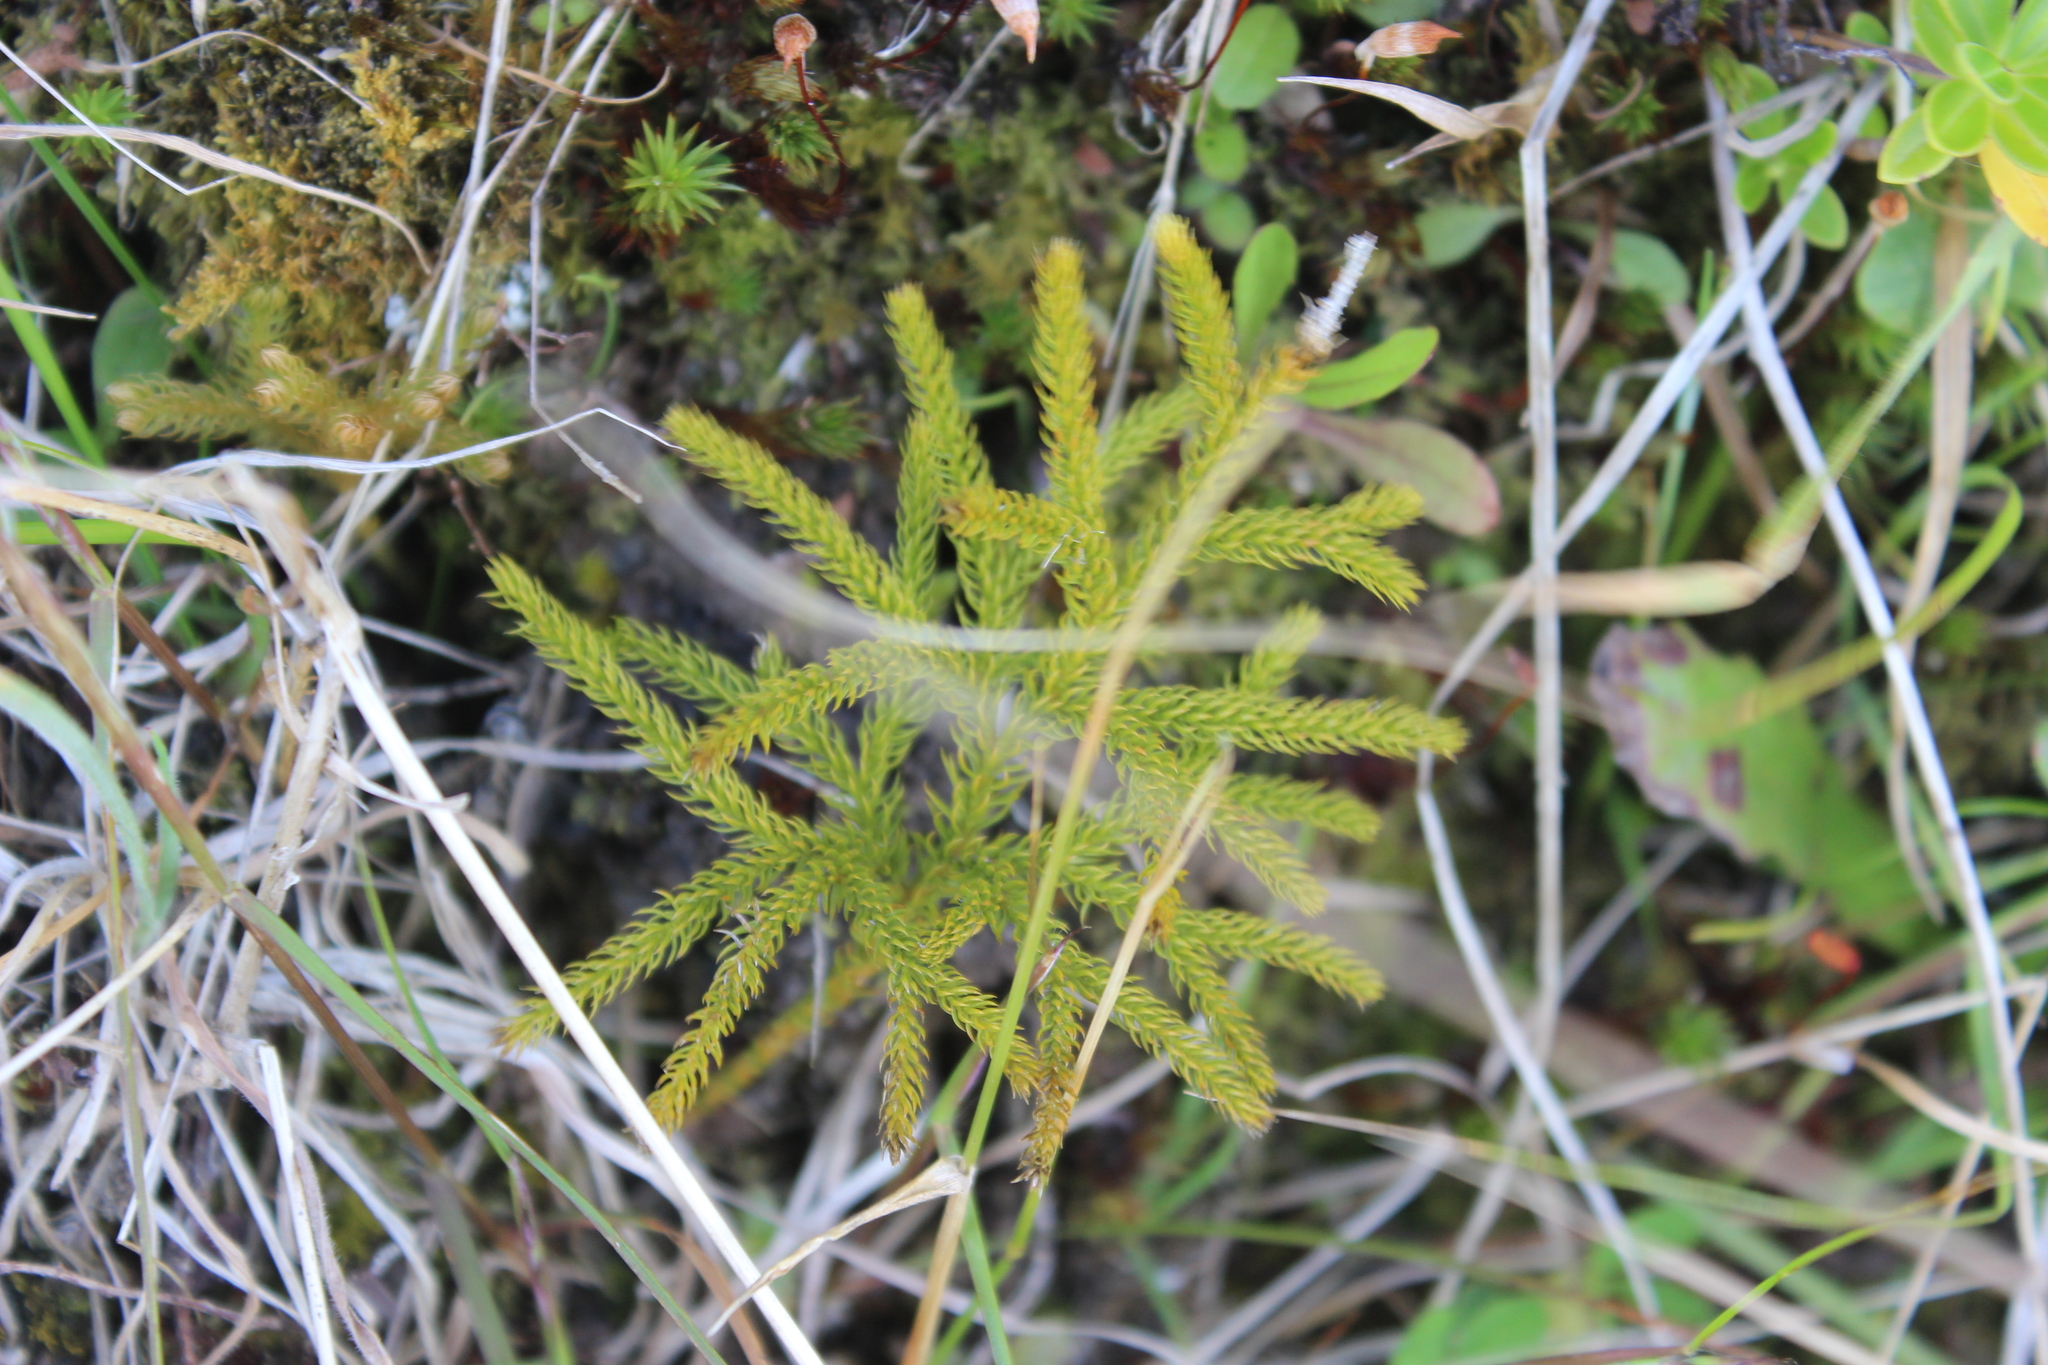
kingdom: Plantae
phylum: Tracheophyta
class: Lycopodiopsida
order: Lycopodiales
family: Lycopodiaceae
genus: Austrolycopodium
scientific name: Austrolycopodium fastigiatum
